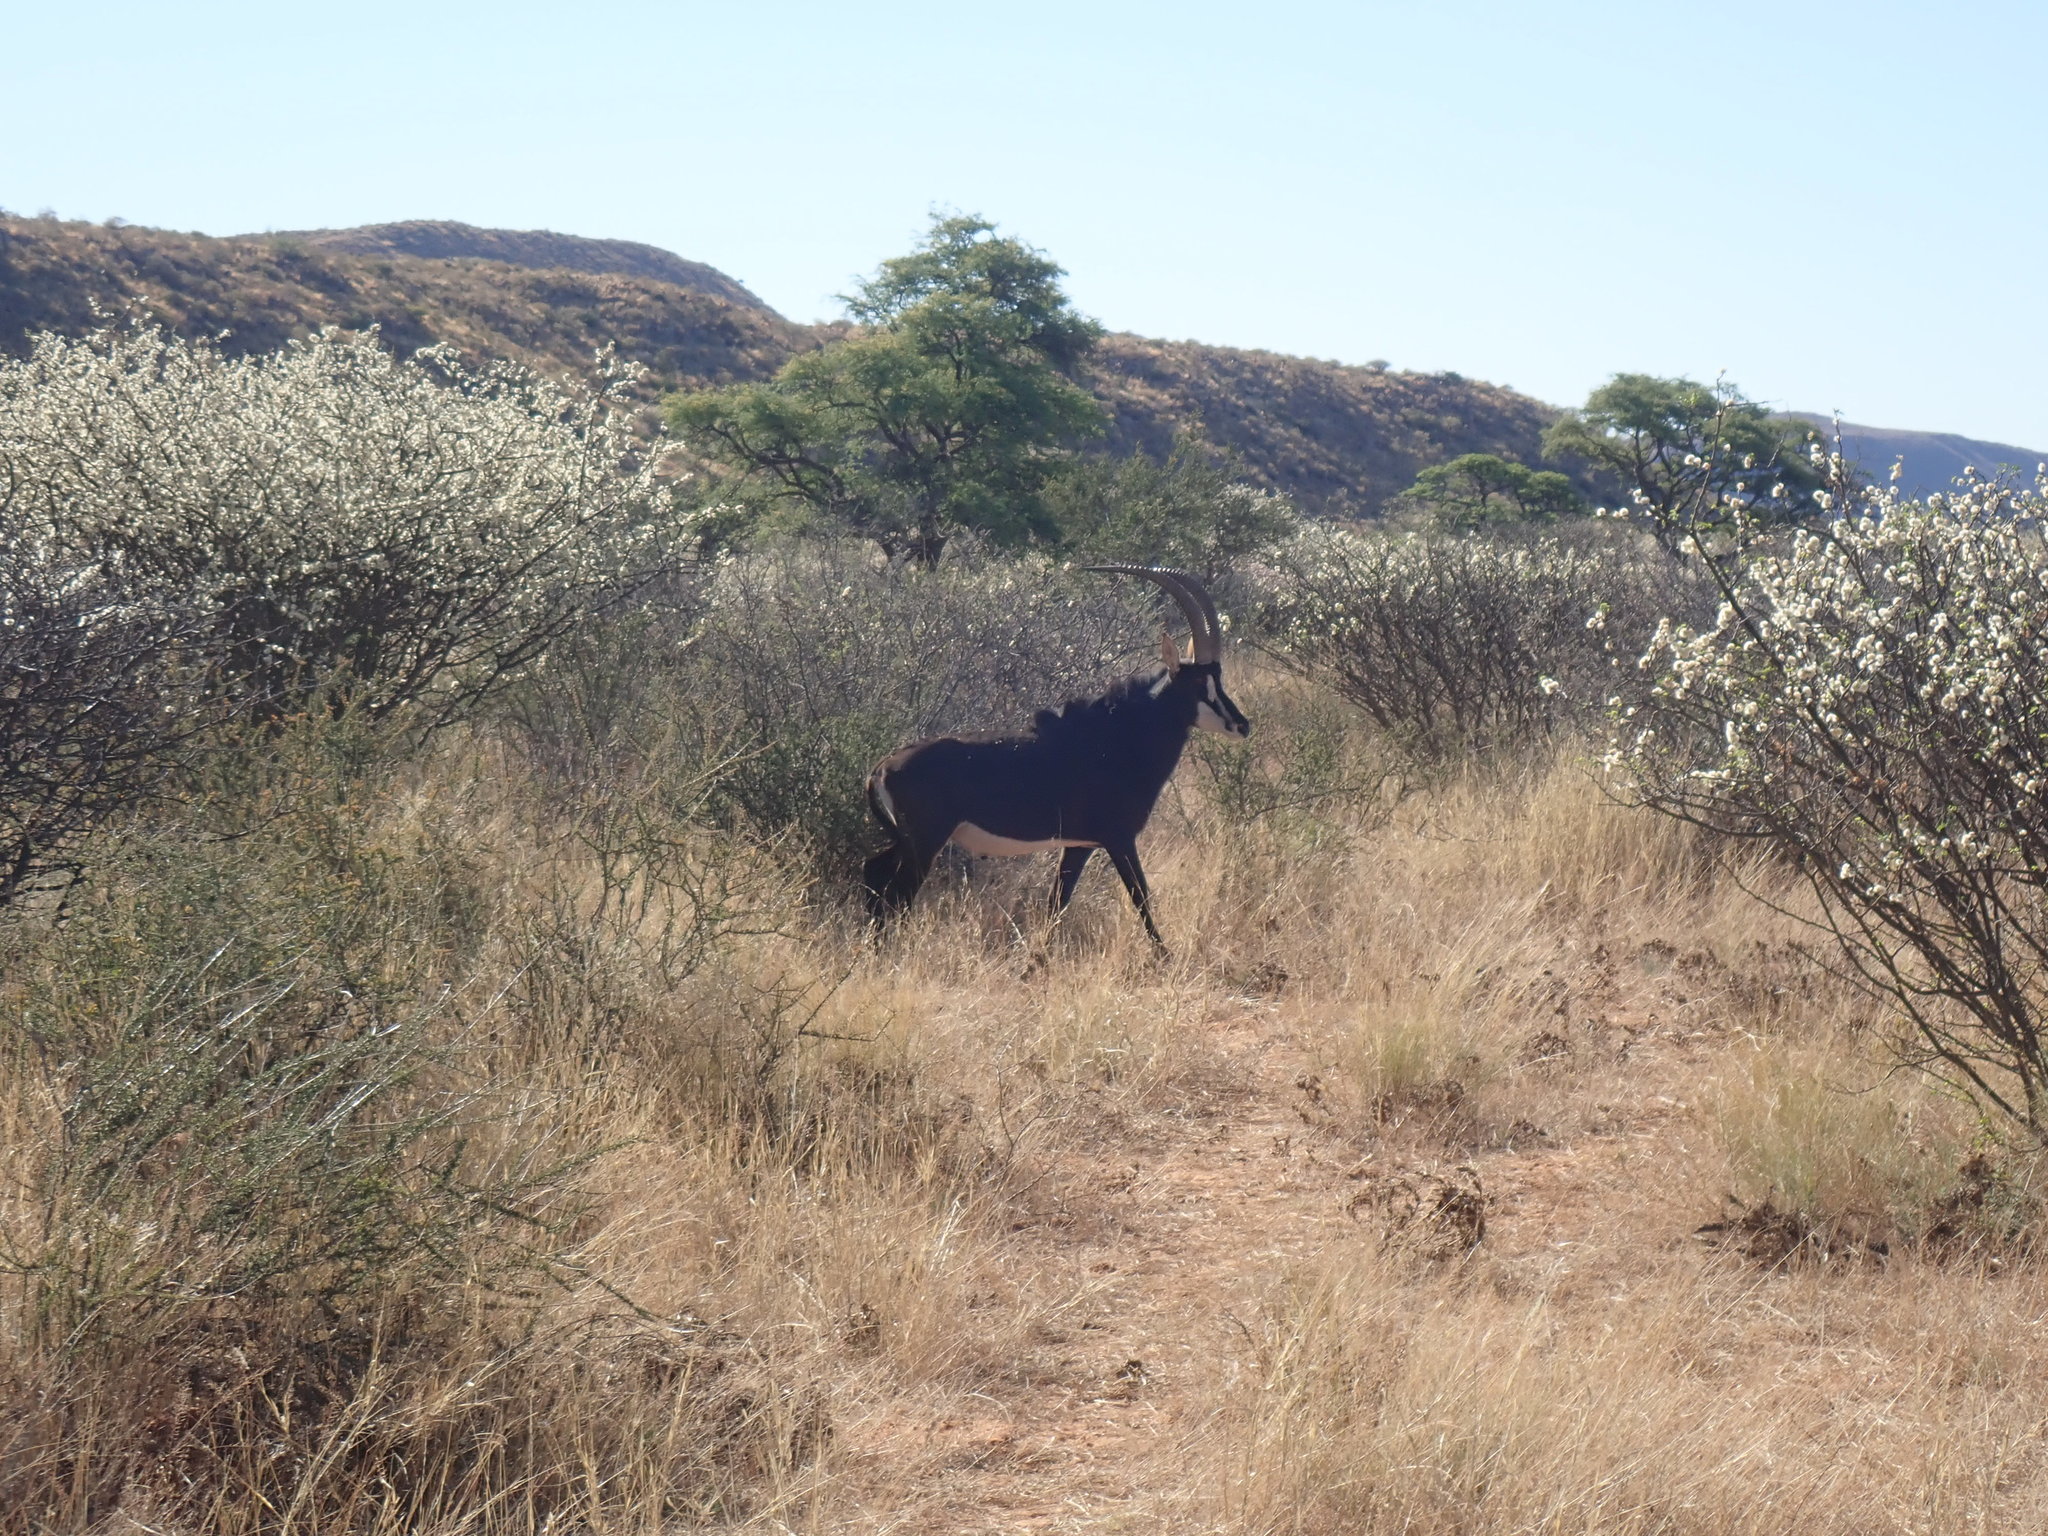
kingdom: Animalia
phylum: Chordata
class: Mammalia
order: Artiodactyla
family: Bovidae
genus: Hippotragus
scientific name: Hippotragus niger
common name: Sable antelope
